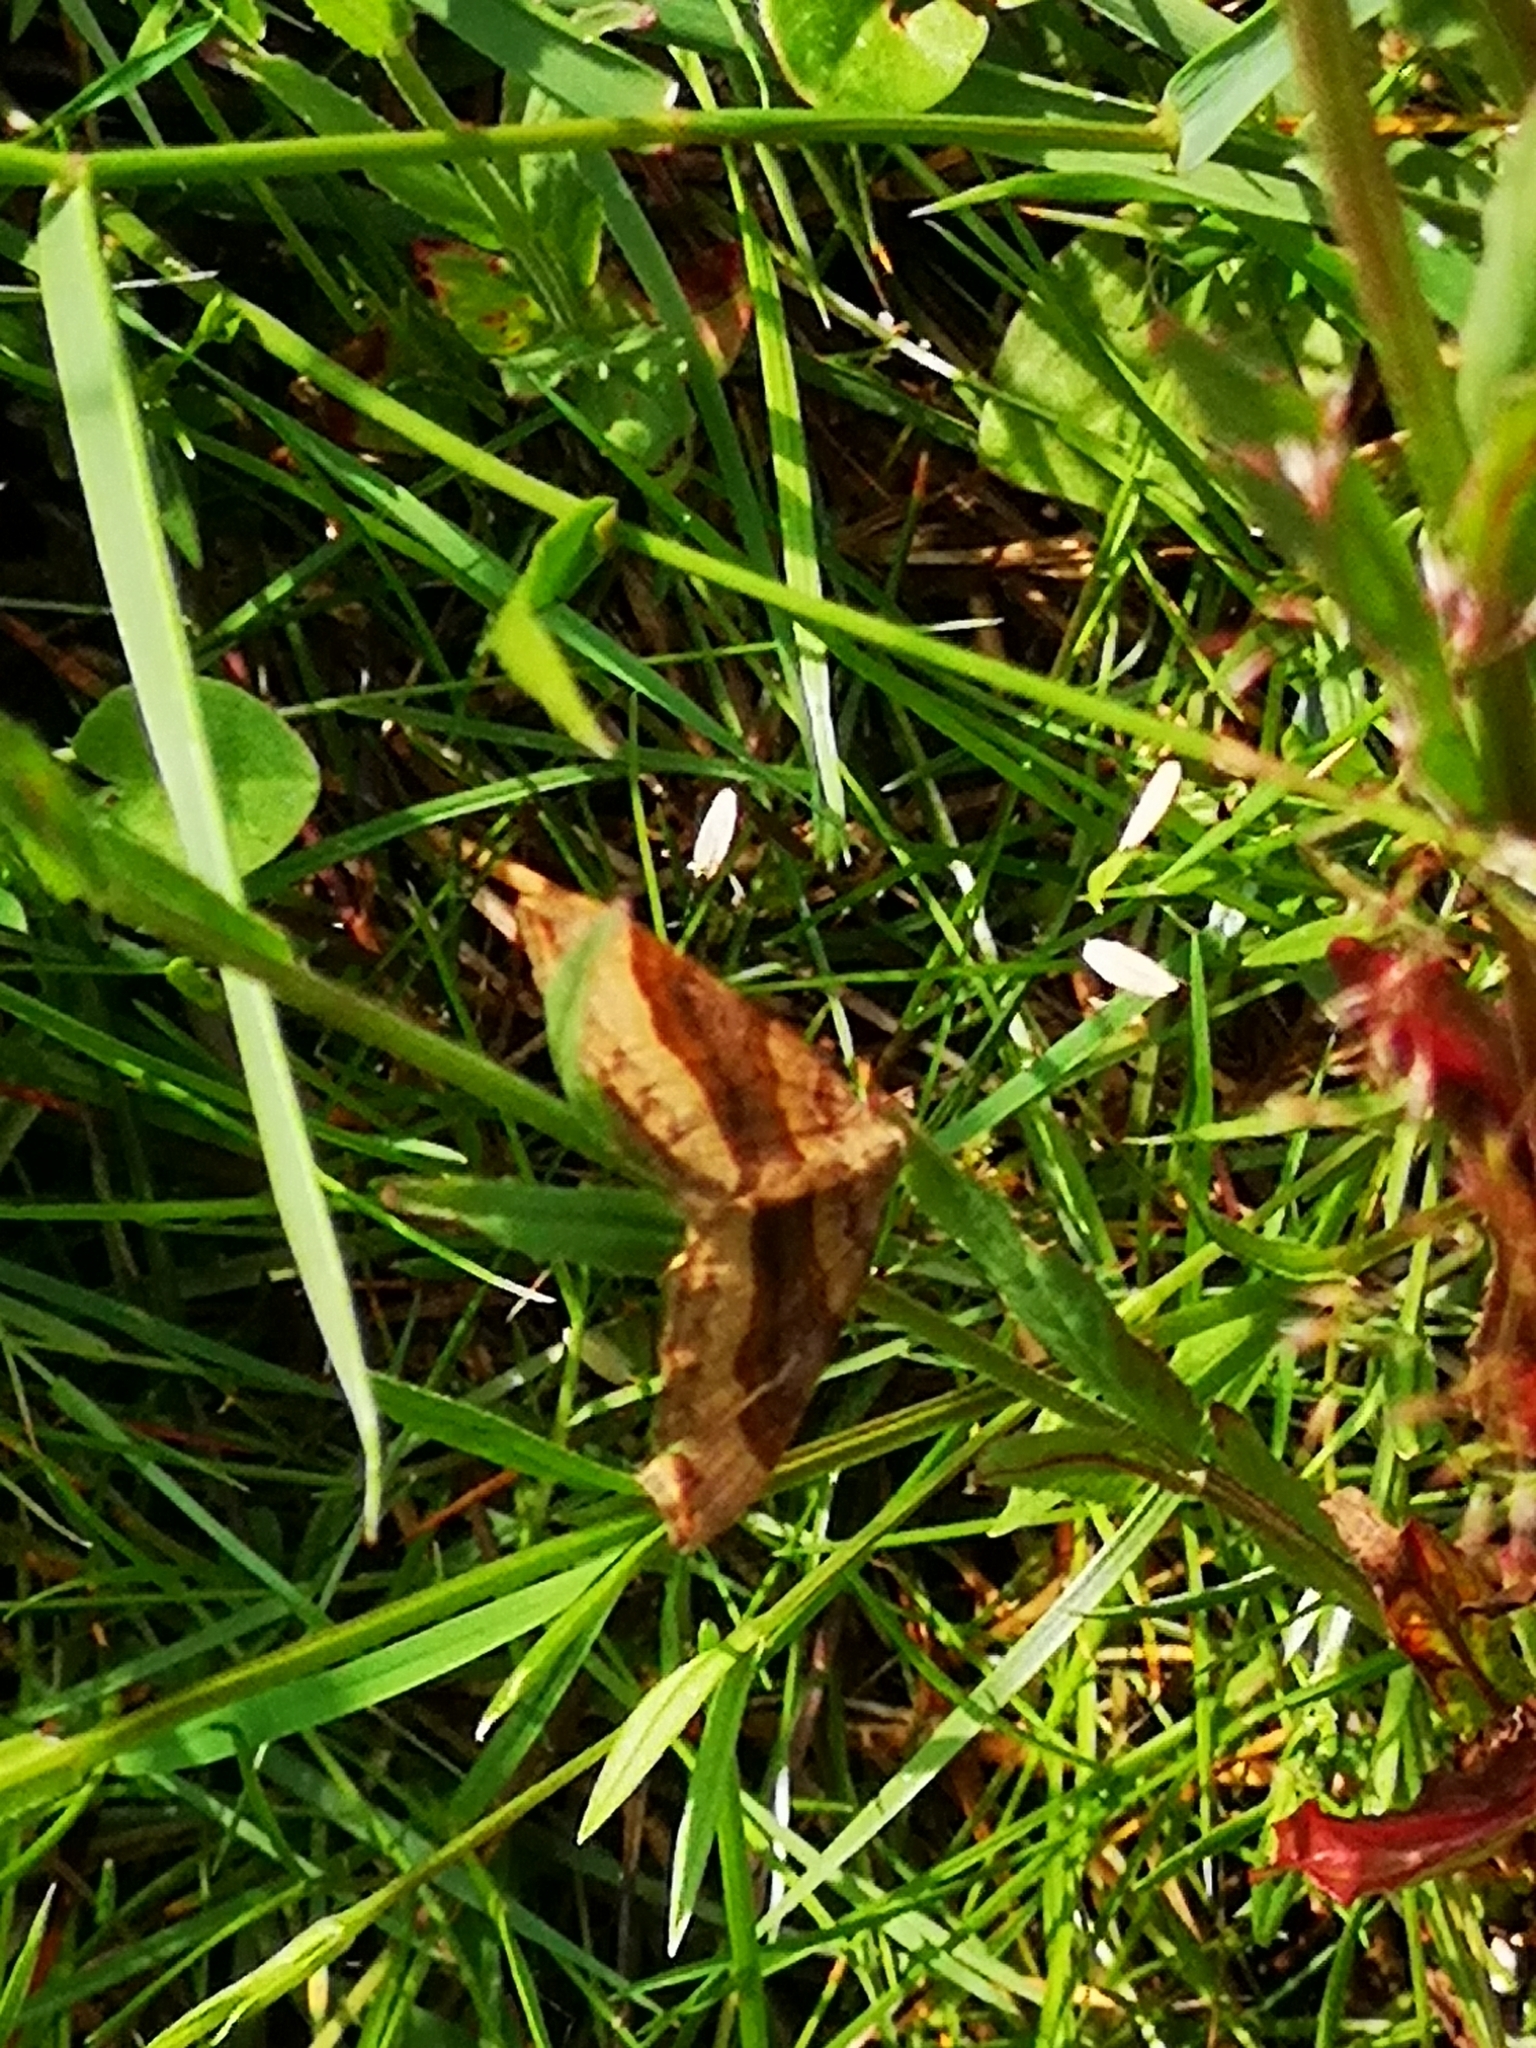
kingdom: Animalia
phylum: Arthropoda
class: Insecta
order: Lepidoptera
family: Geometridae
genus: Scotopteryx
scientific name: Scotopteryx chenopodiata
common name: Shaded broad-bar
